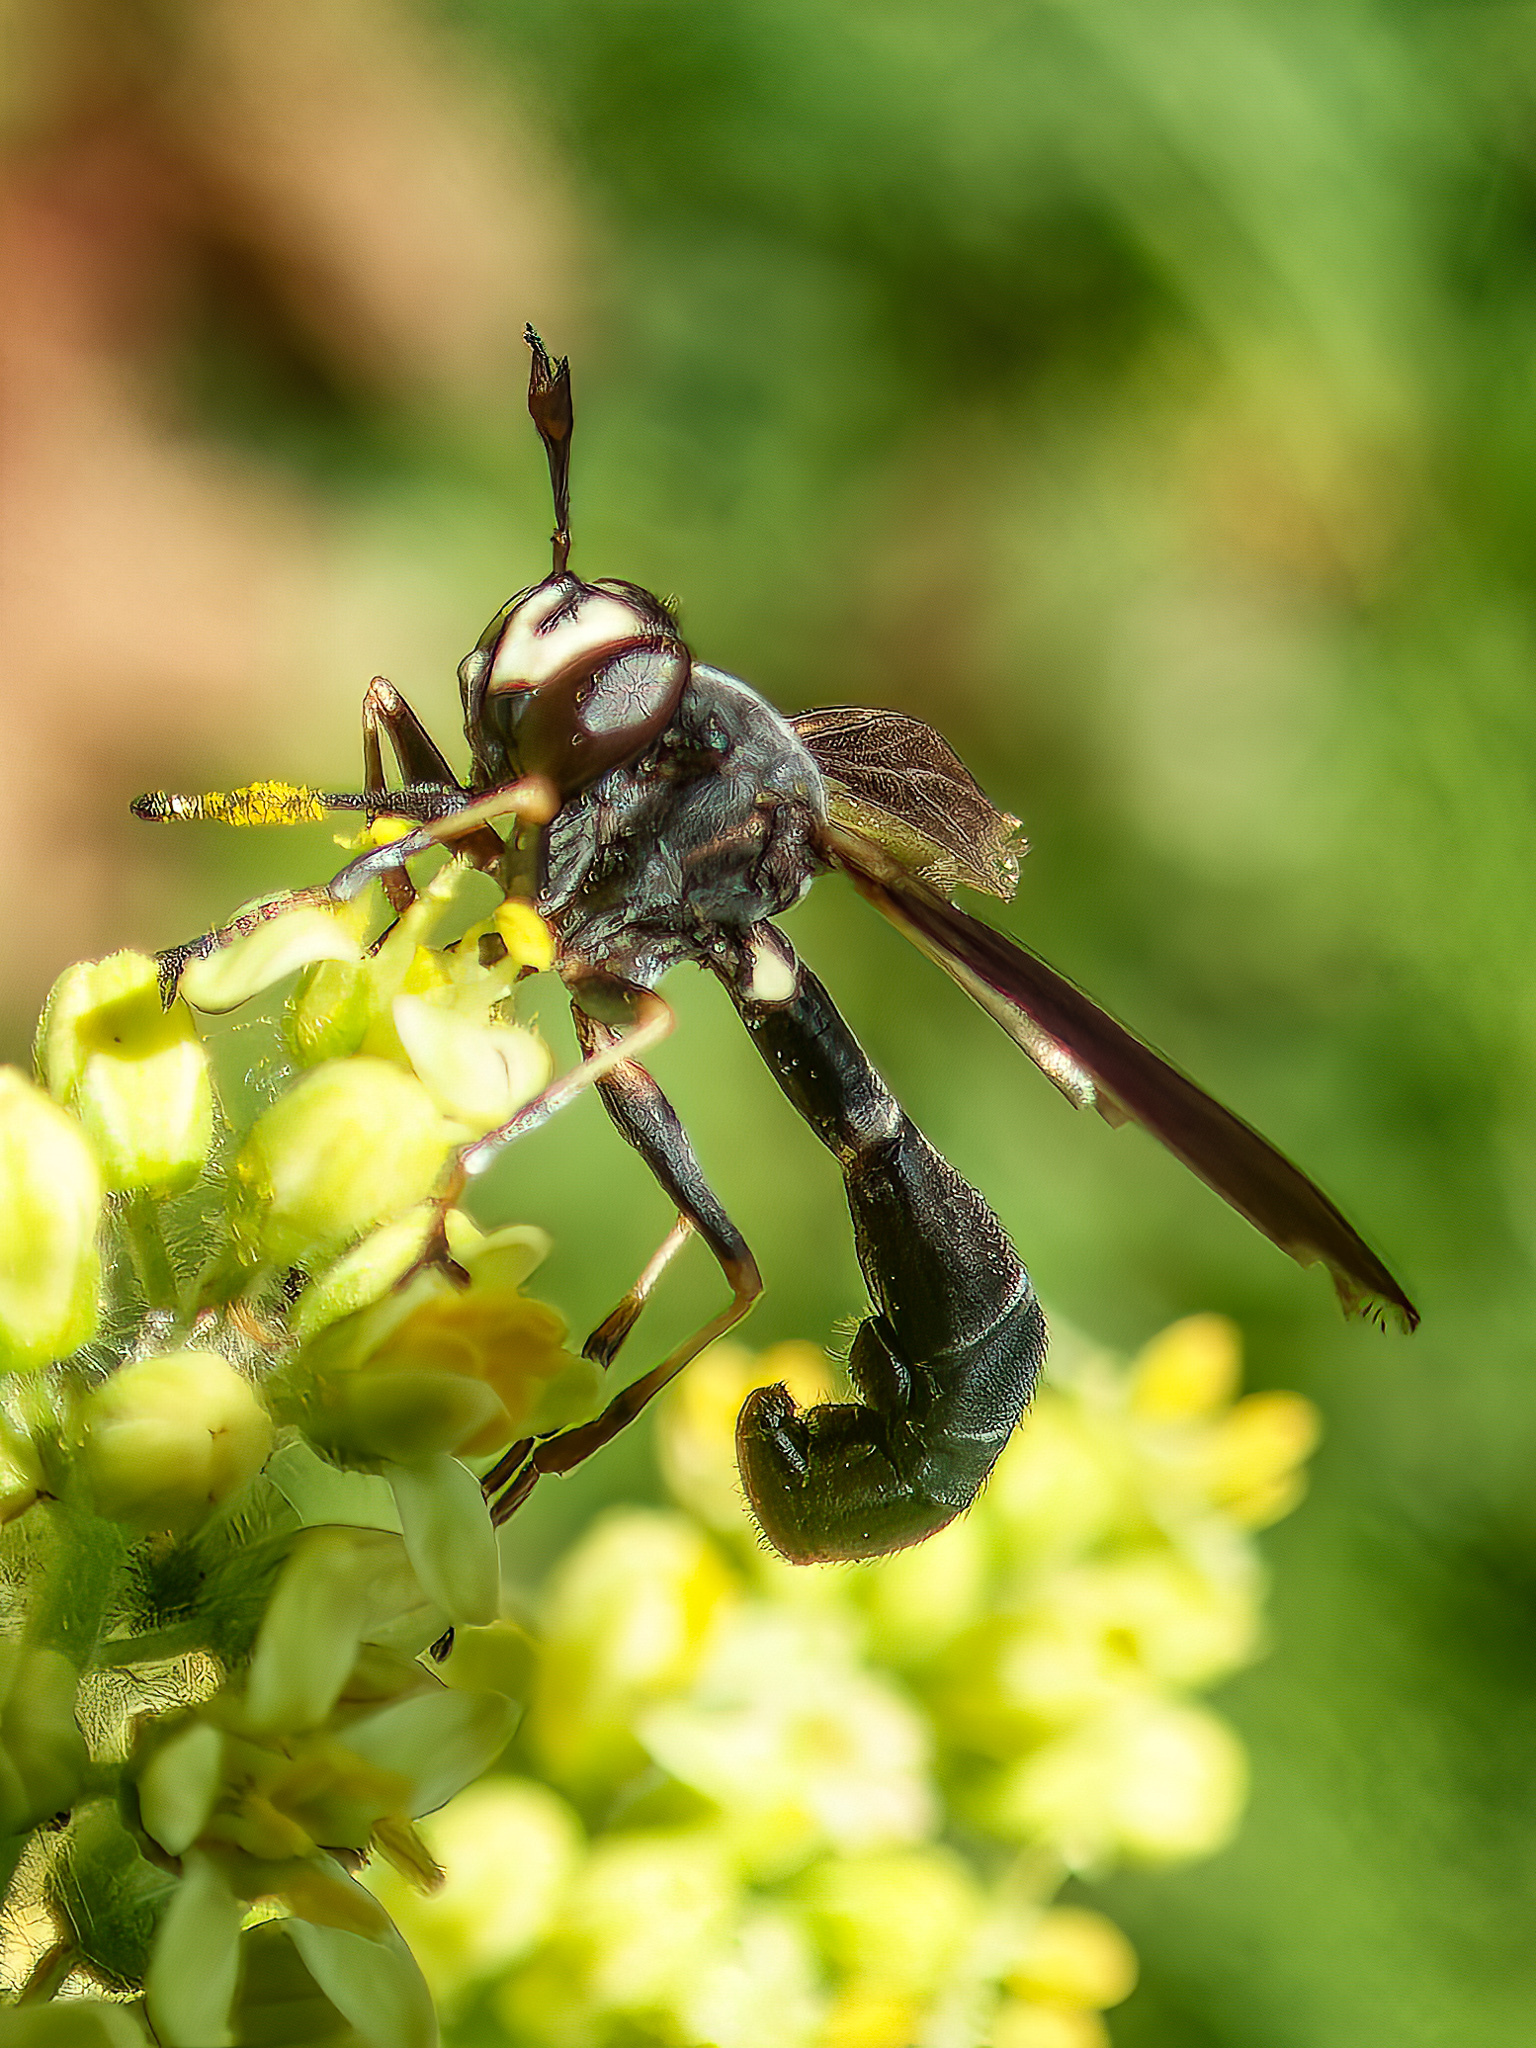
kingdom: Animalia
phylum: Arthropoda
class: Insecta
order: Diptera
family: Conopidae
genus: Physocephala
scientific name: Physocephala tibialis
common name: Common eastern physocephala
